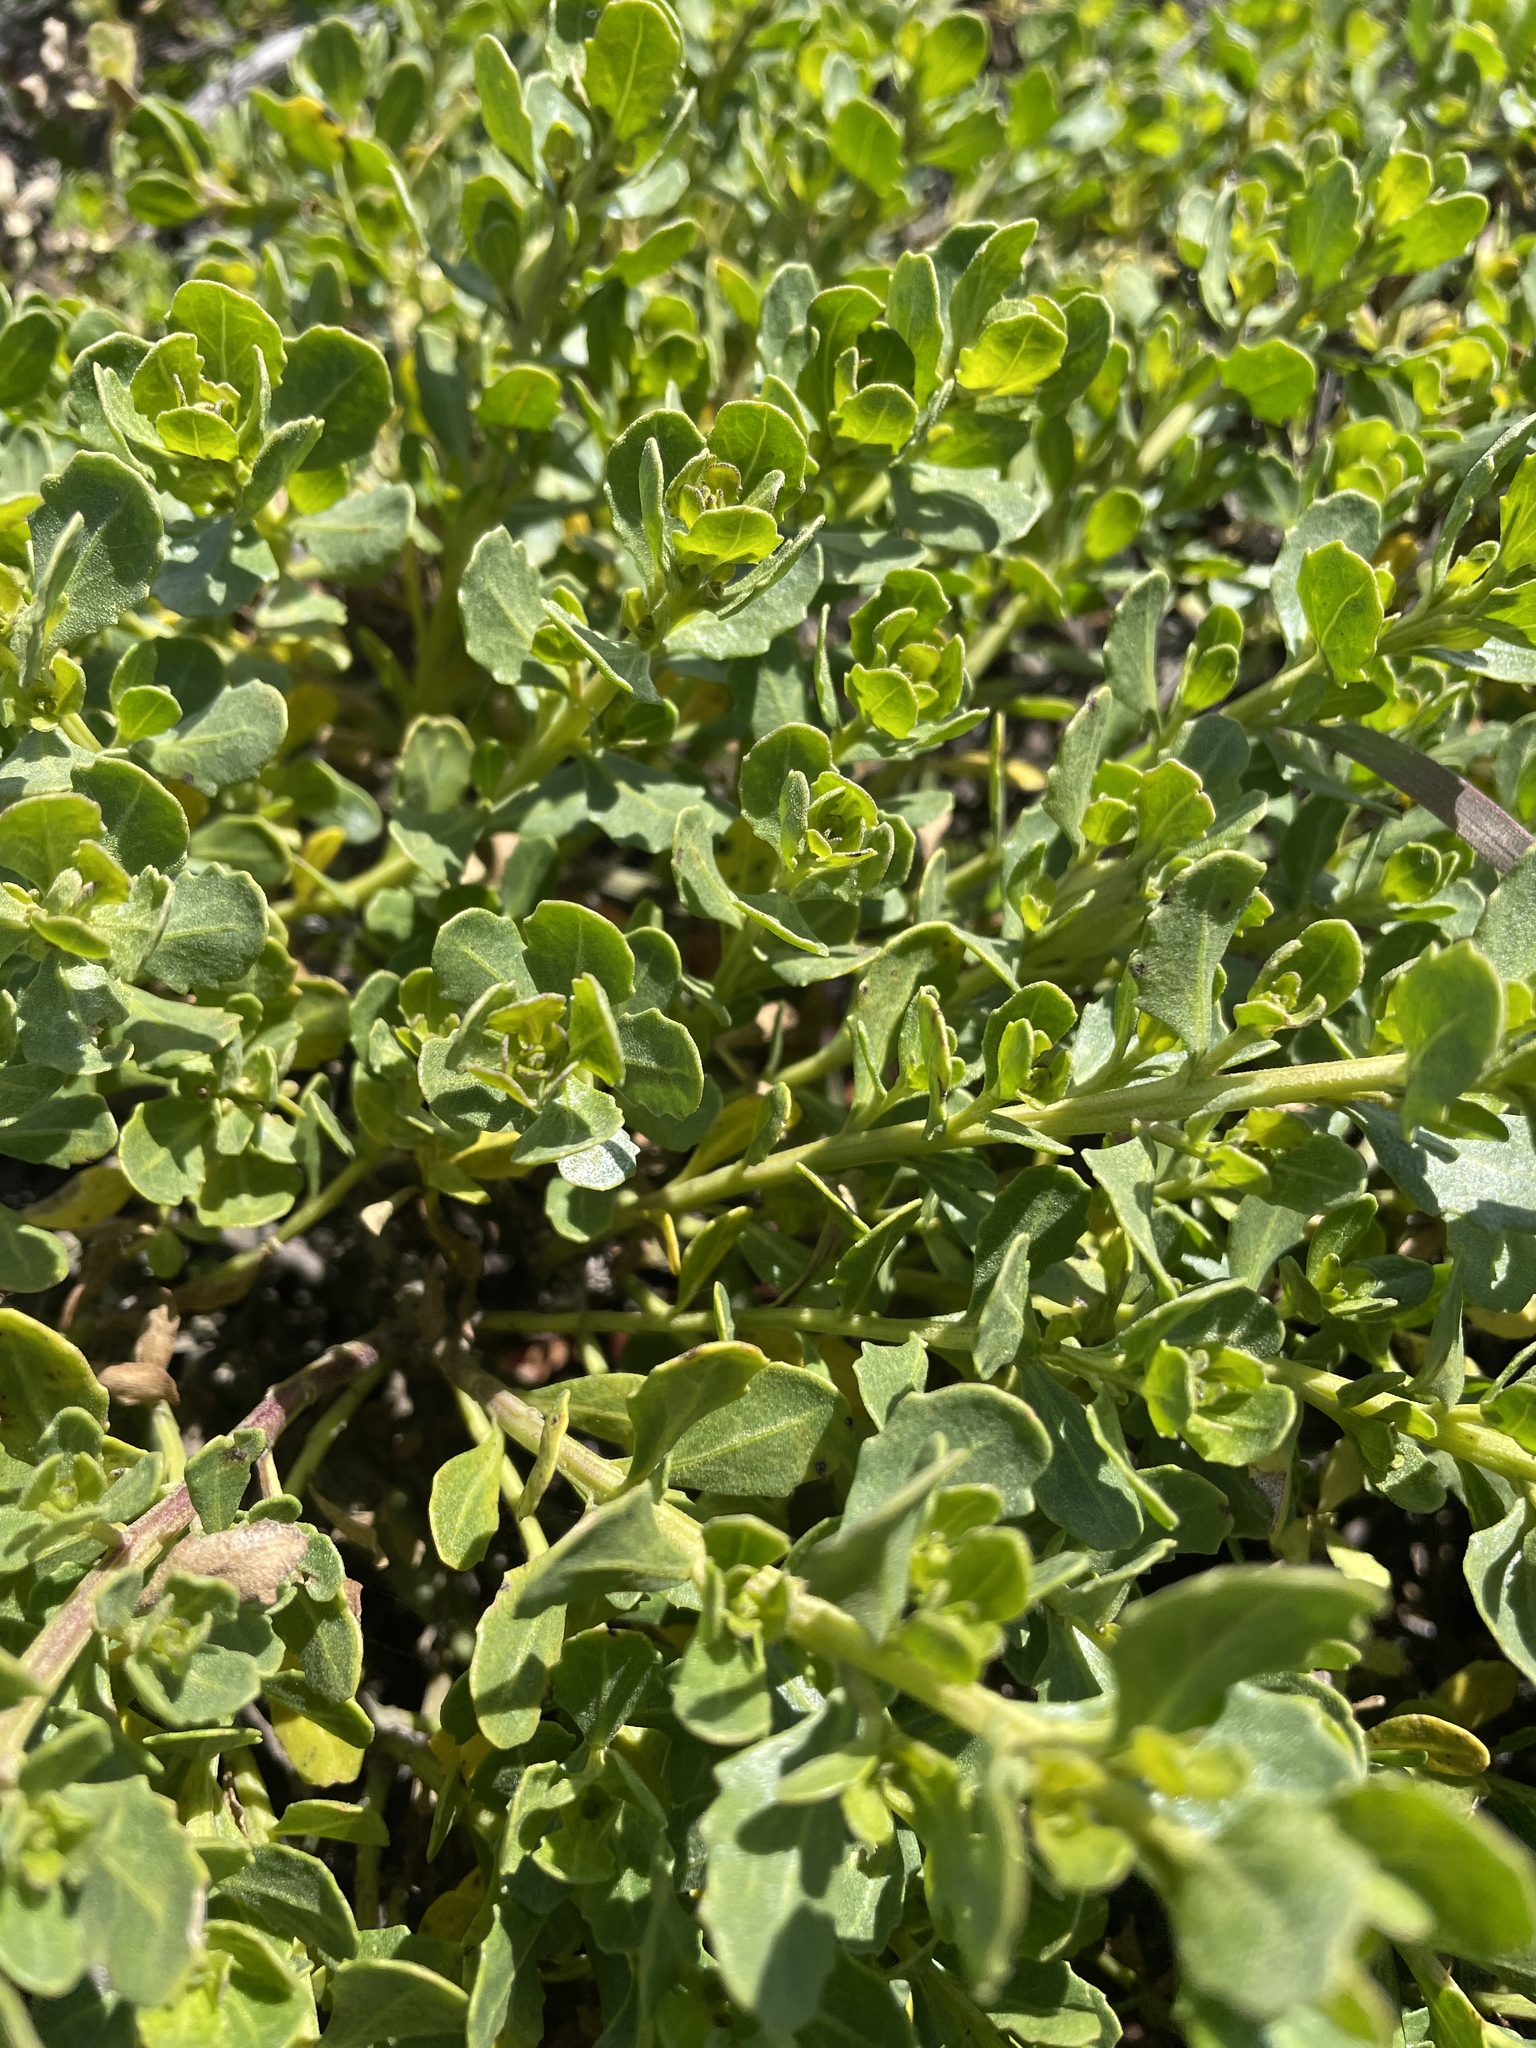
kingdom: Plantae
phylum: Tracheophyta
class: Magnoliopsida
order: Asterales
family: Asteraceae
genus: Baccharis
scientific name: Baccharis pilularis
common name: Coyotebrush
